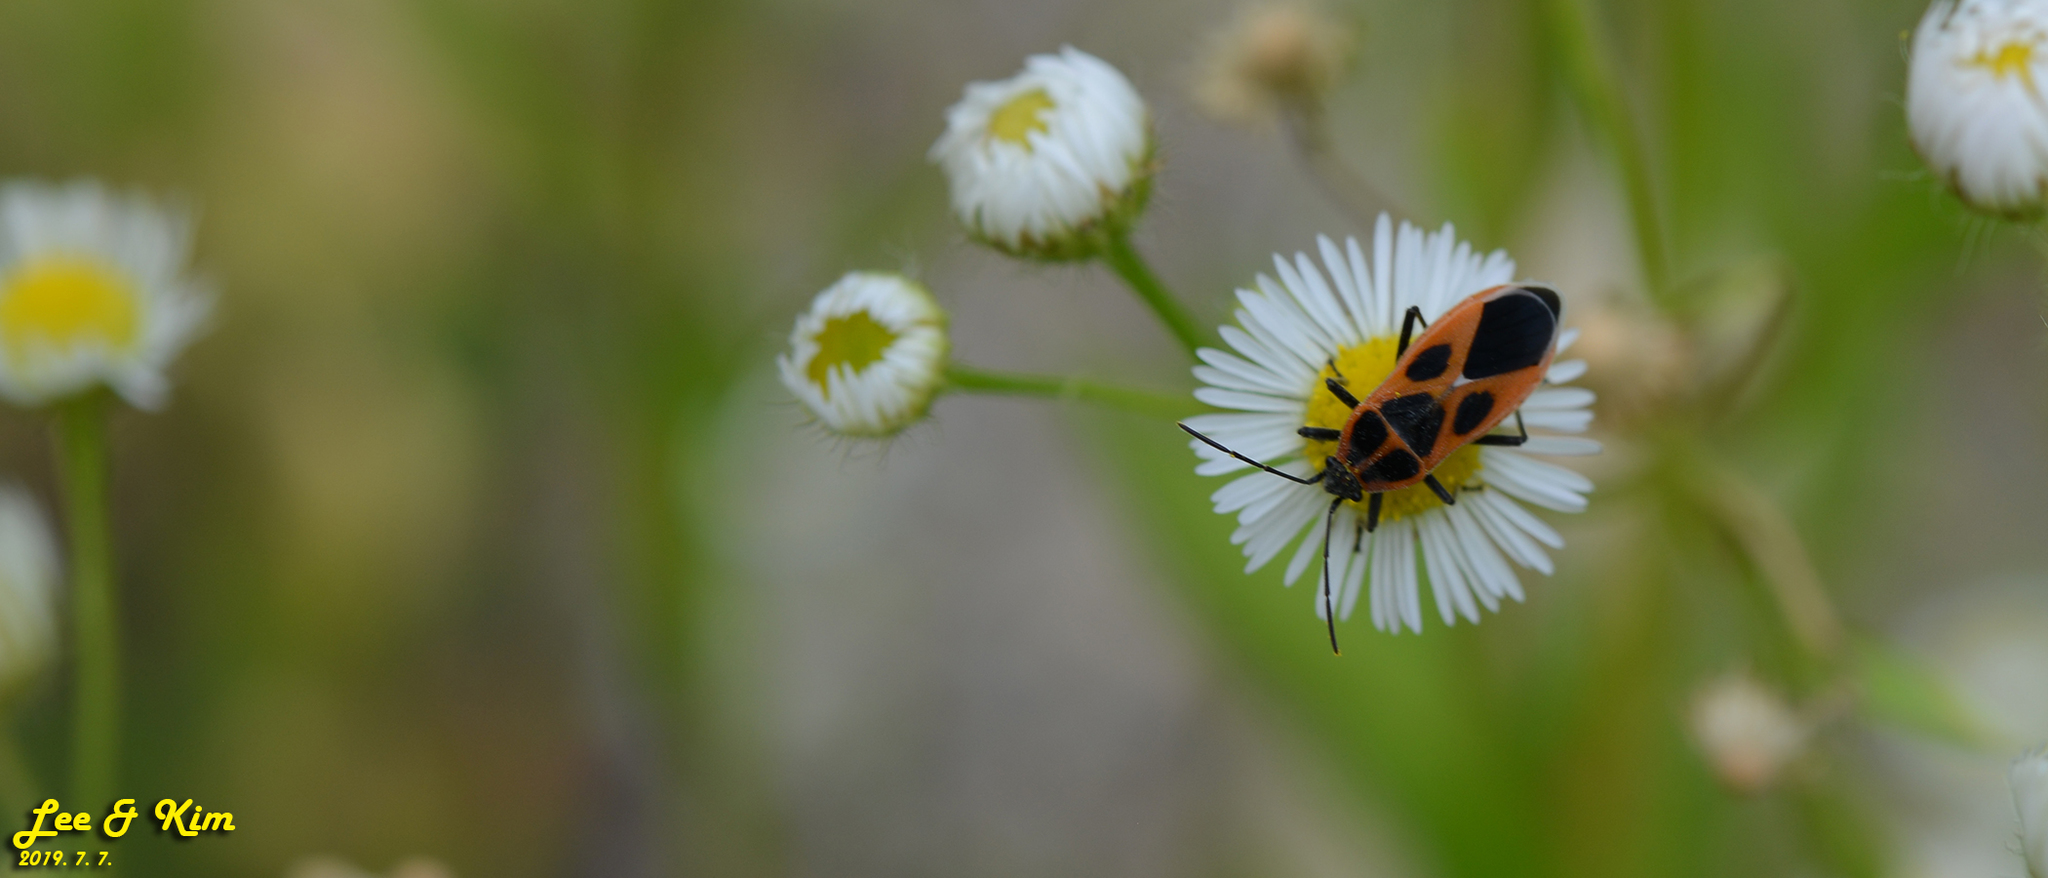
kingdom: Animalia
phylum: Arthropoda
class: Insecta
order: Hemiptera
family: Lygaeidae
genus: Tropidothorax
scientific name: Tropidothorax cruciger
